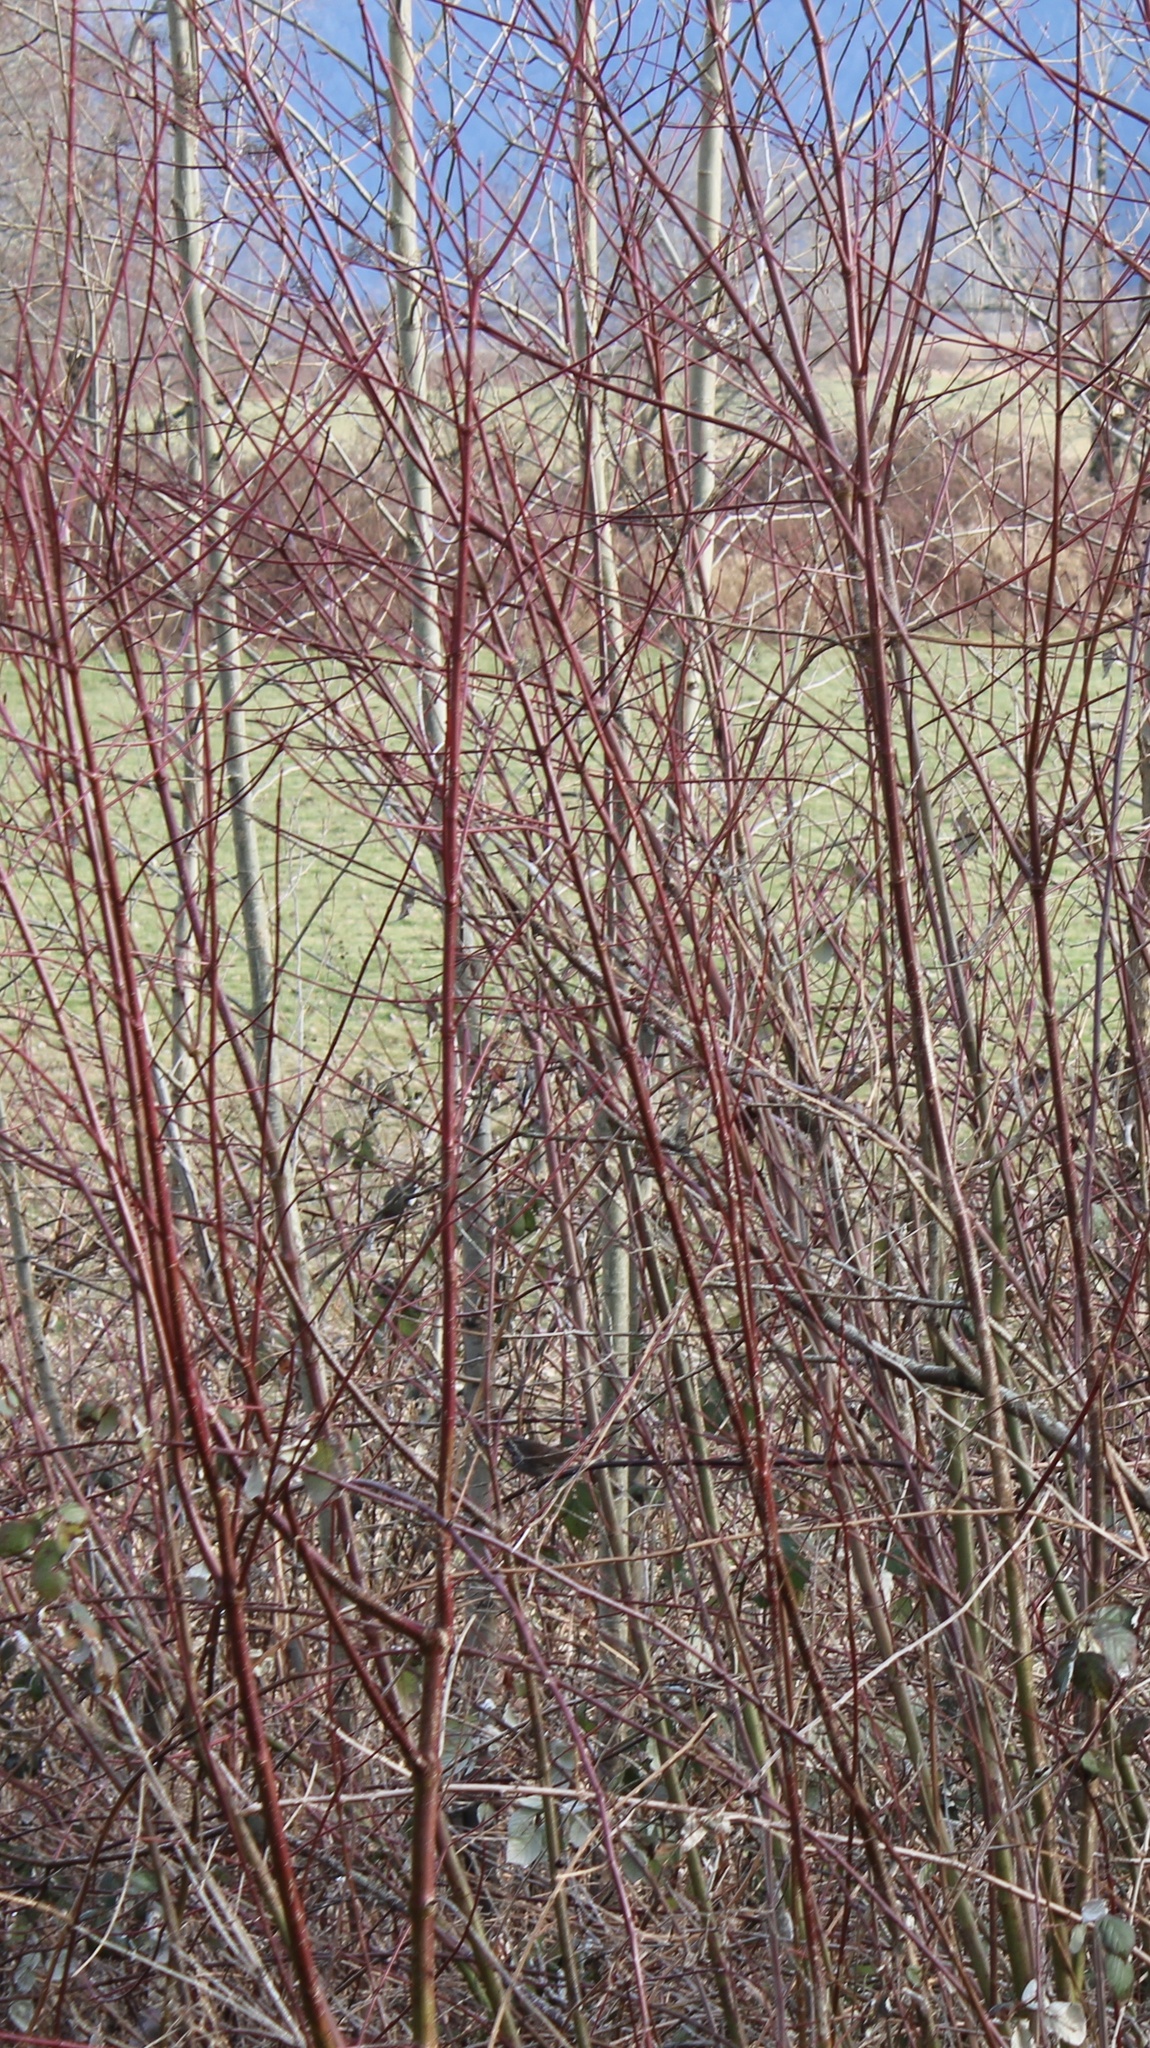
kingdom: Plantae
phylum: Tracheophyta
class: Magnoliopsida
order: Cornales
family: Cornaceae
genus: Cornus
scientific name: Cornus sericea
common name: Red-osier dogwood
